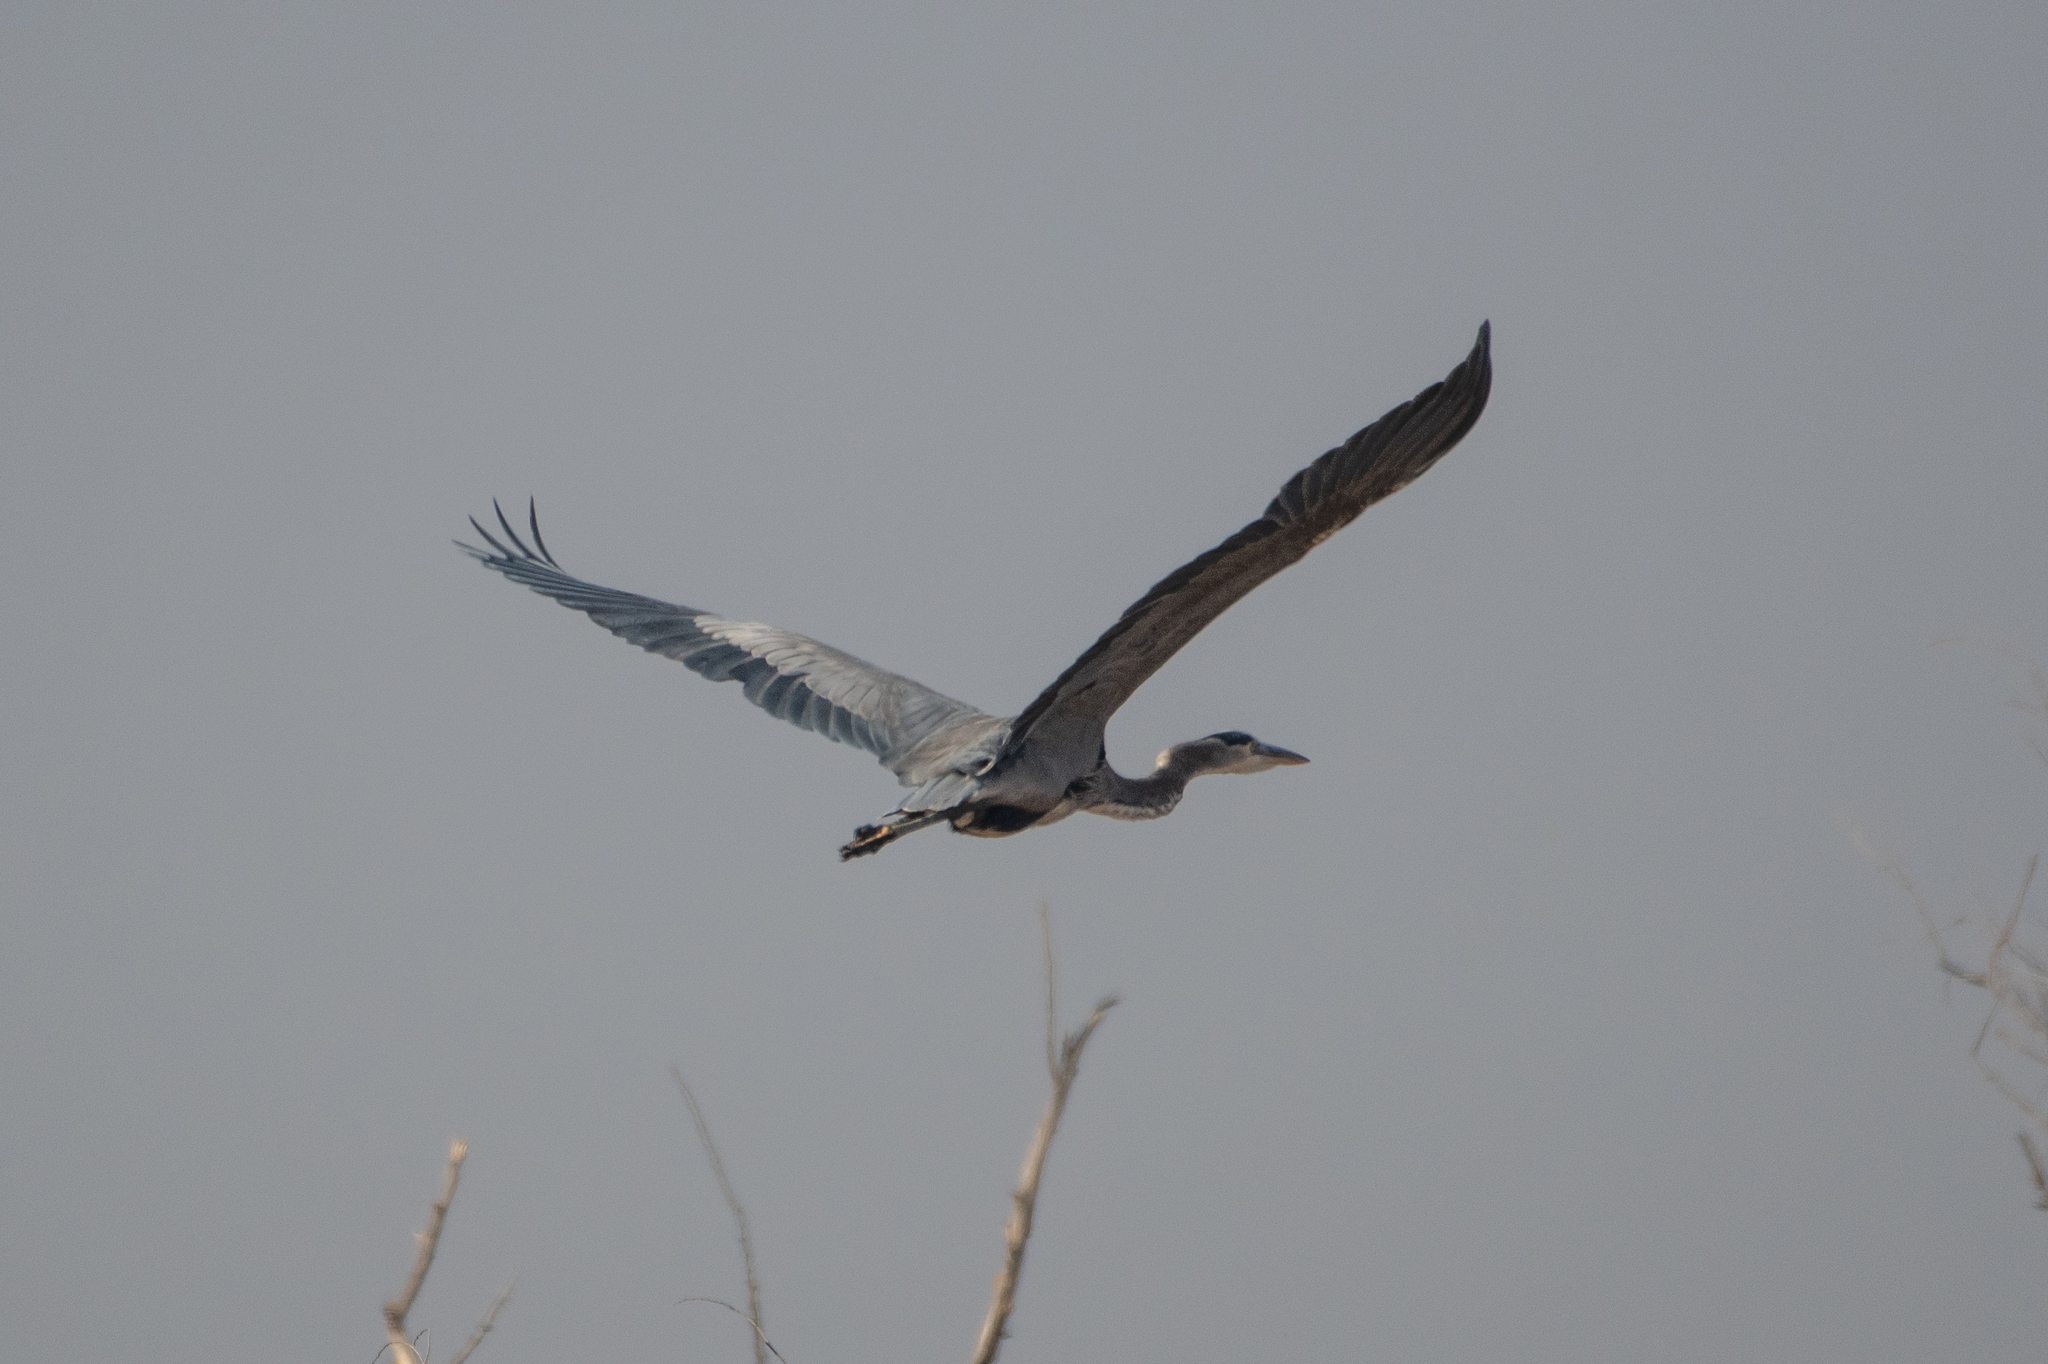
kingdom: Animalia
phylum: Chordata
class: Aves
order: Pelecaniformes
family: Ardeidae
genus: Ardea
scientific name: Ardea herodias
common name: Great blue heron
